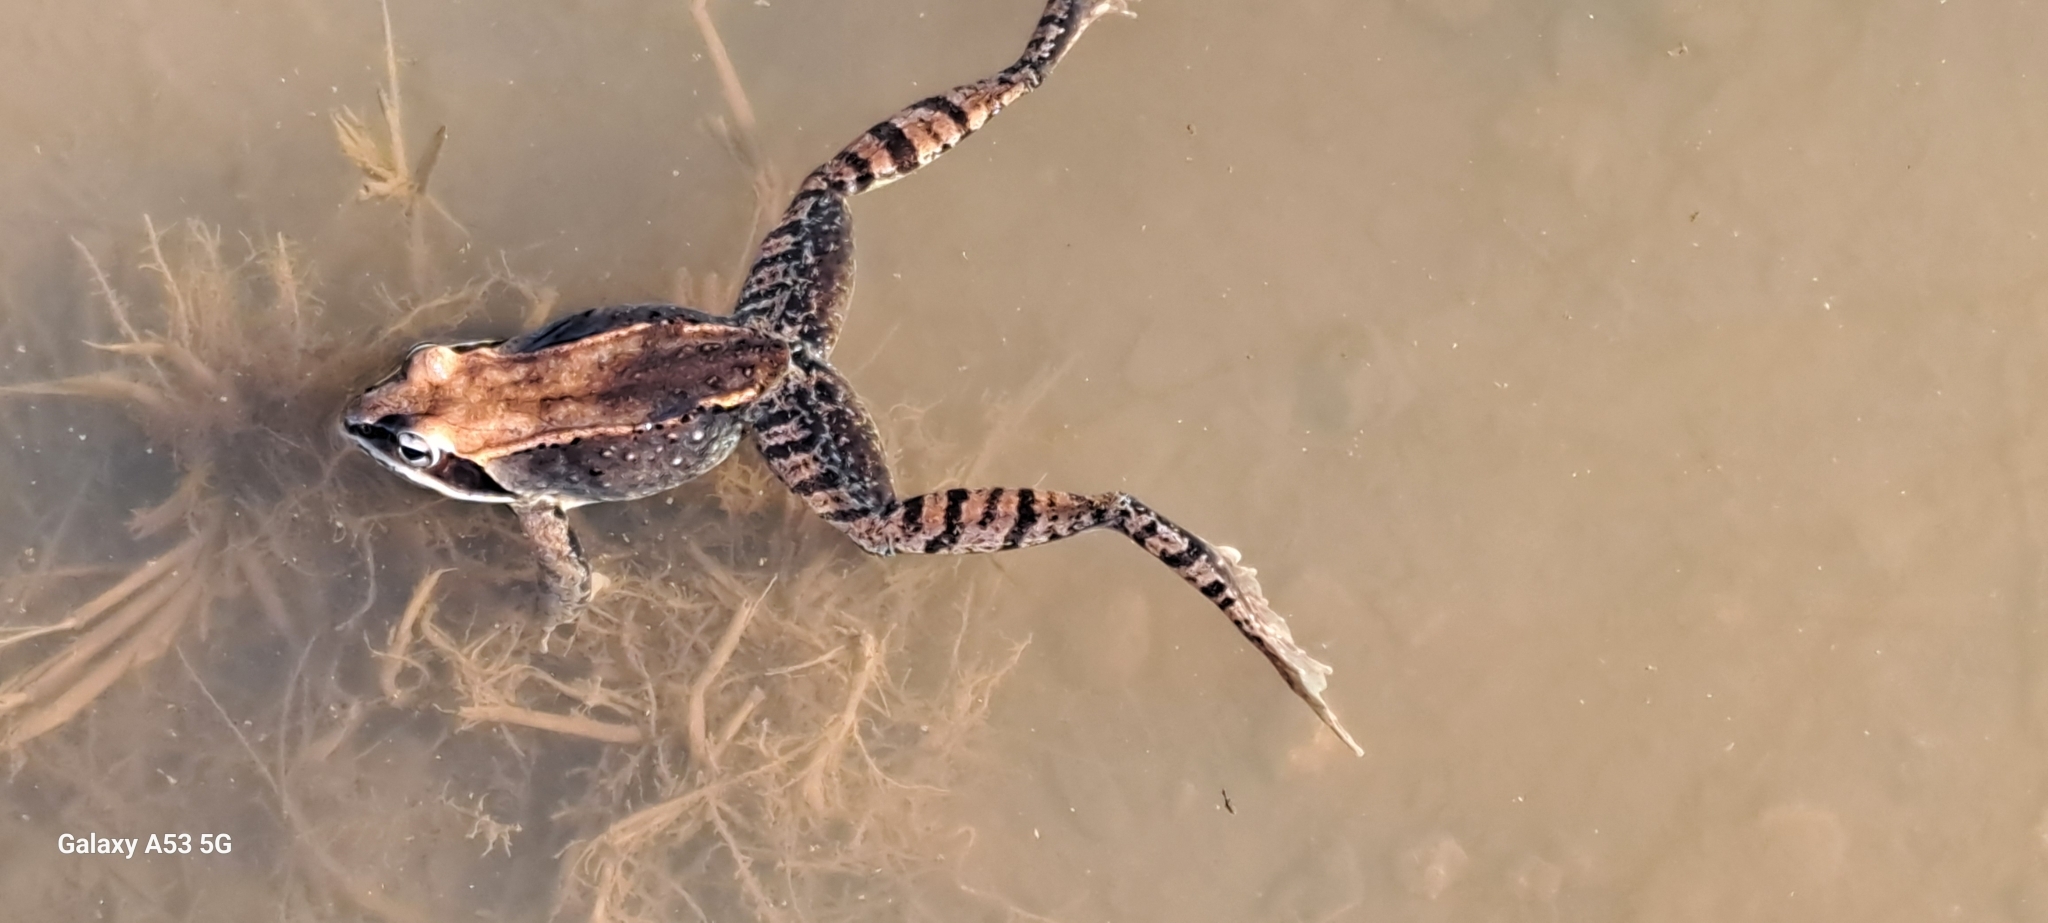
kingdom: Animalia
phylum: Chordata
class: Amphibia
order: Anura
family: Ranidae
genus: Lithobates
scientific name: Lithobates sylvaticus
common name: Wood frog
